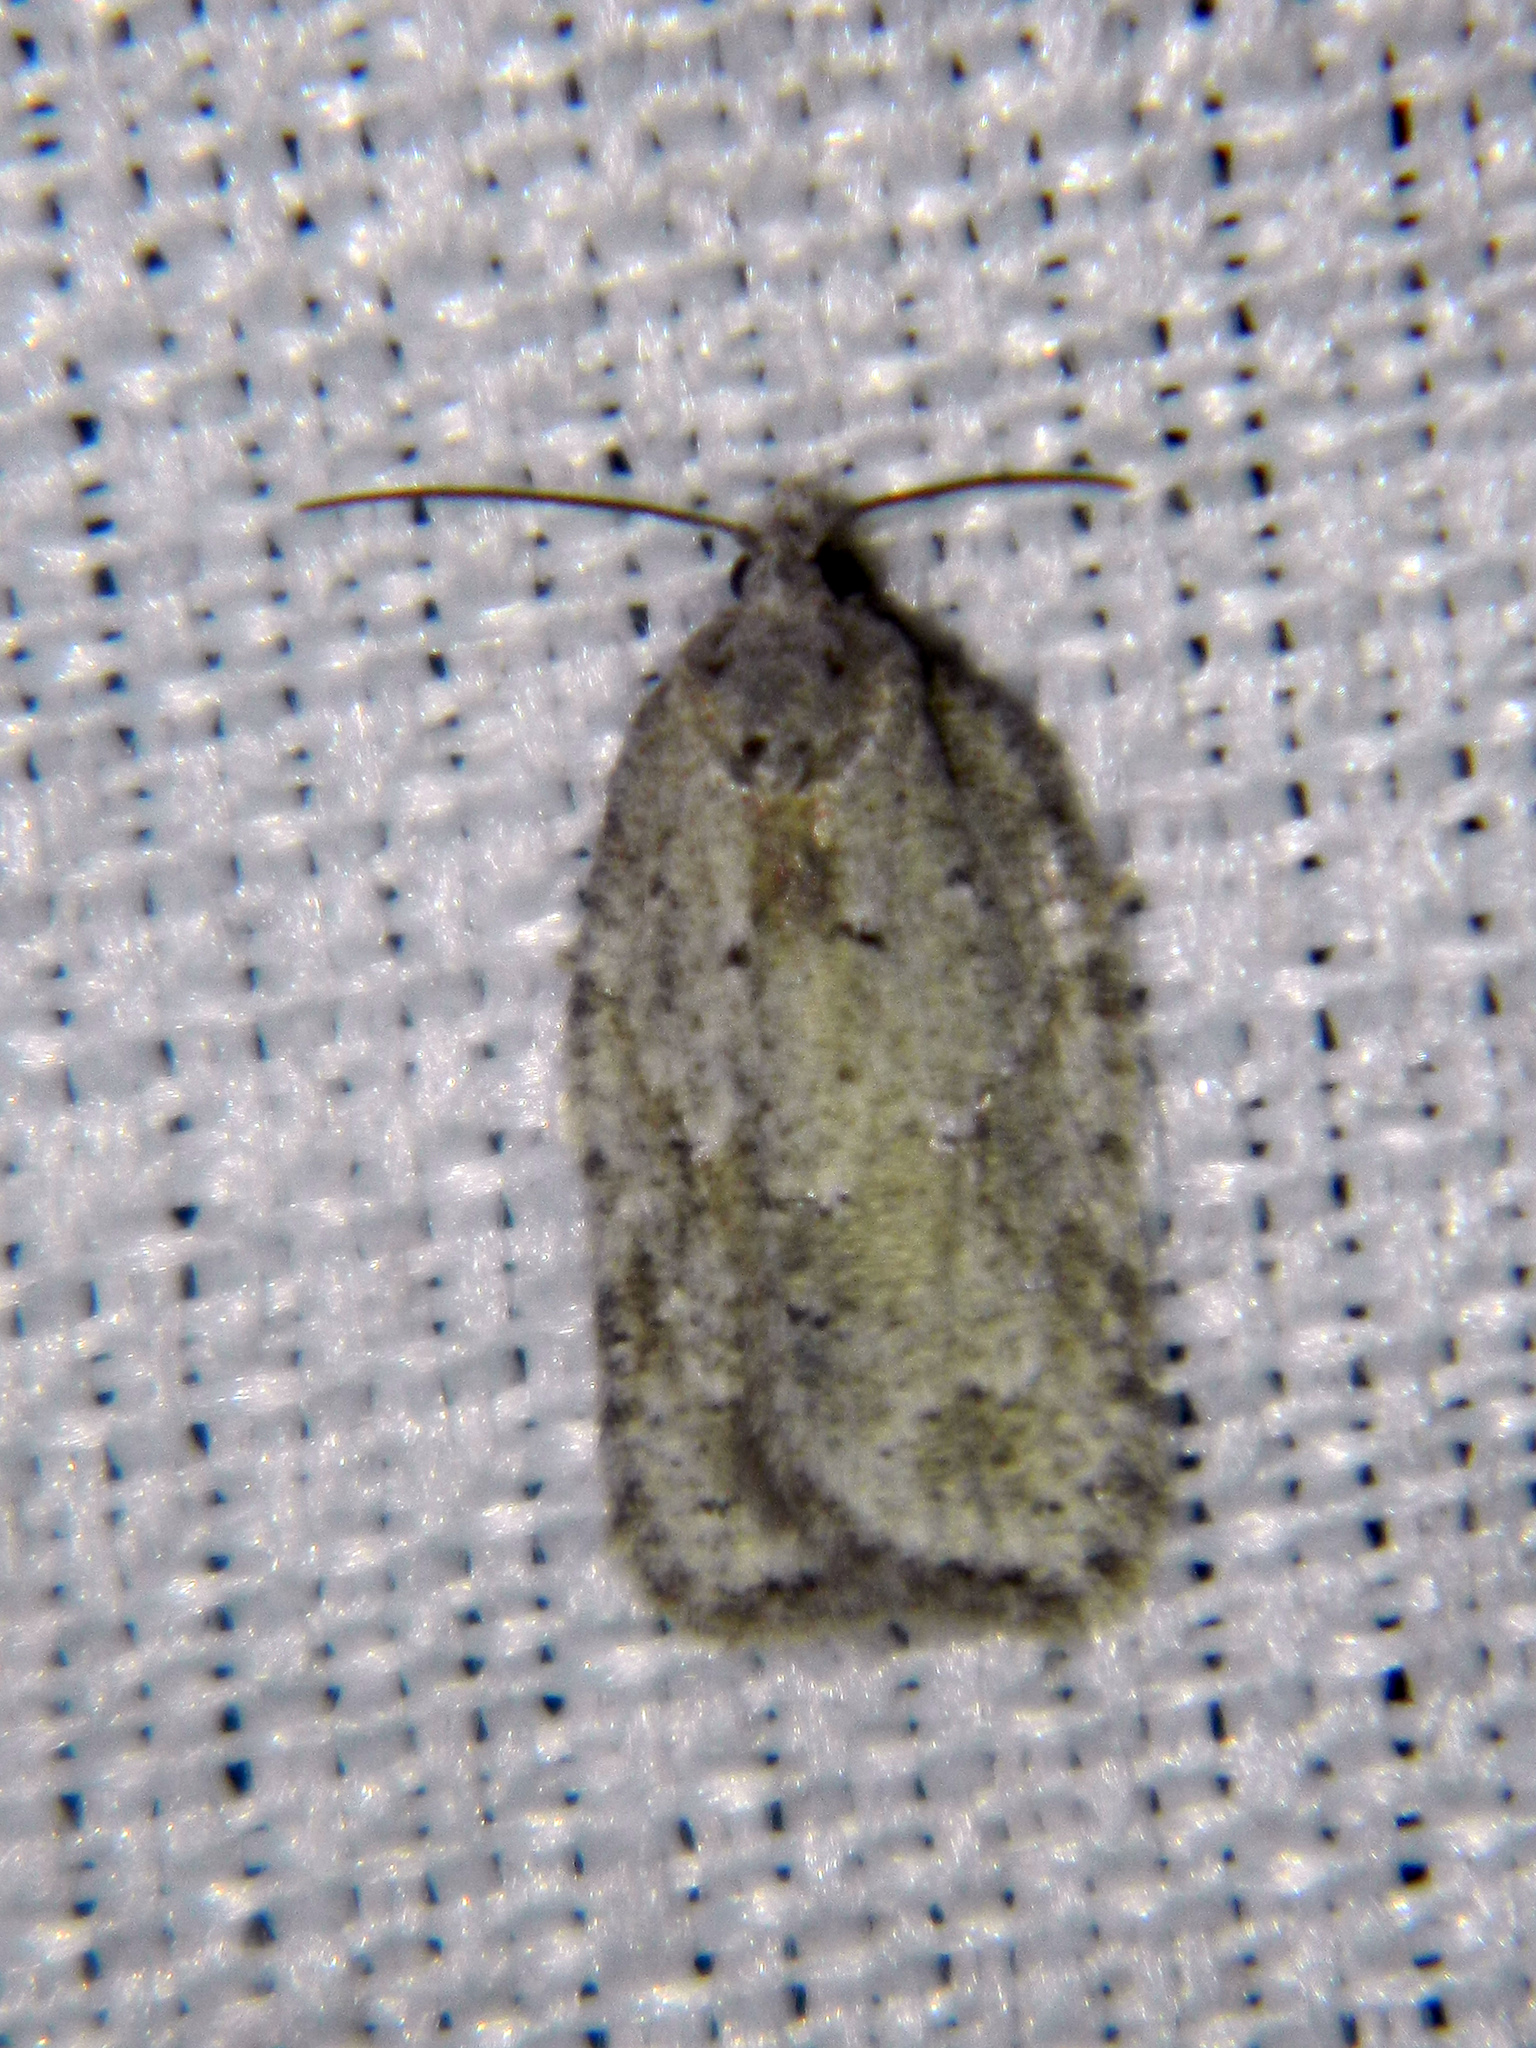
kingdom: Animalia
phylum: Arthropoda
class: Insecta
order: Lepidoptera
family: Tortricidae
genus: Acleris
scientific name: Acleris placidana
